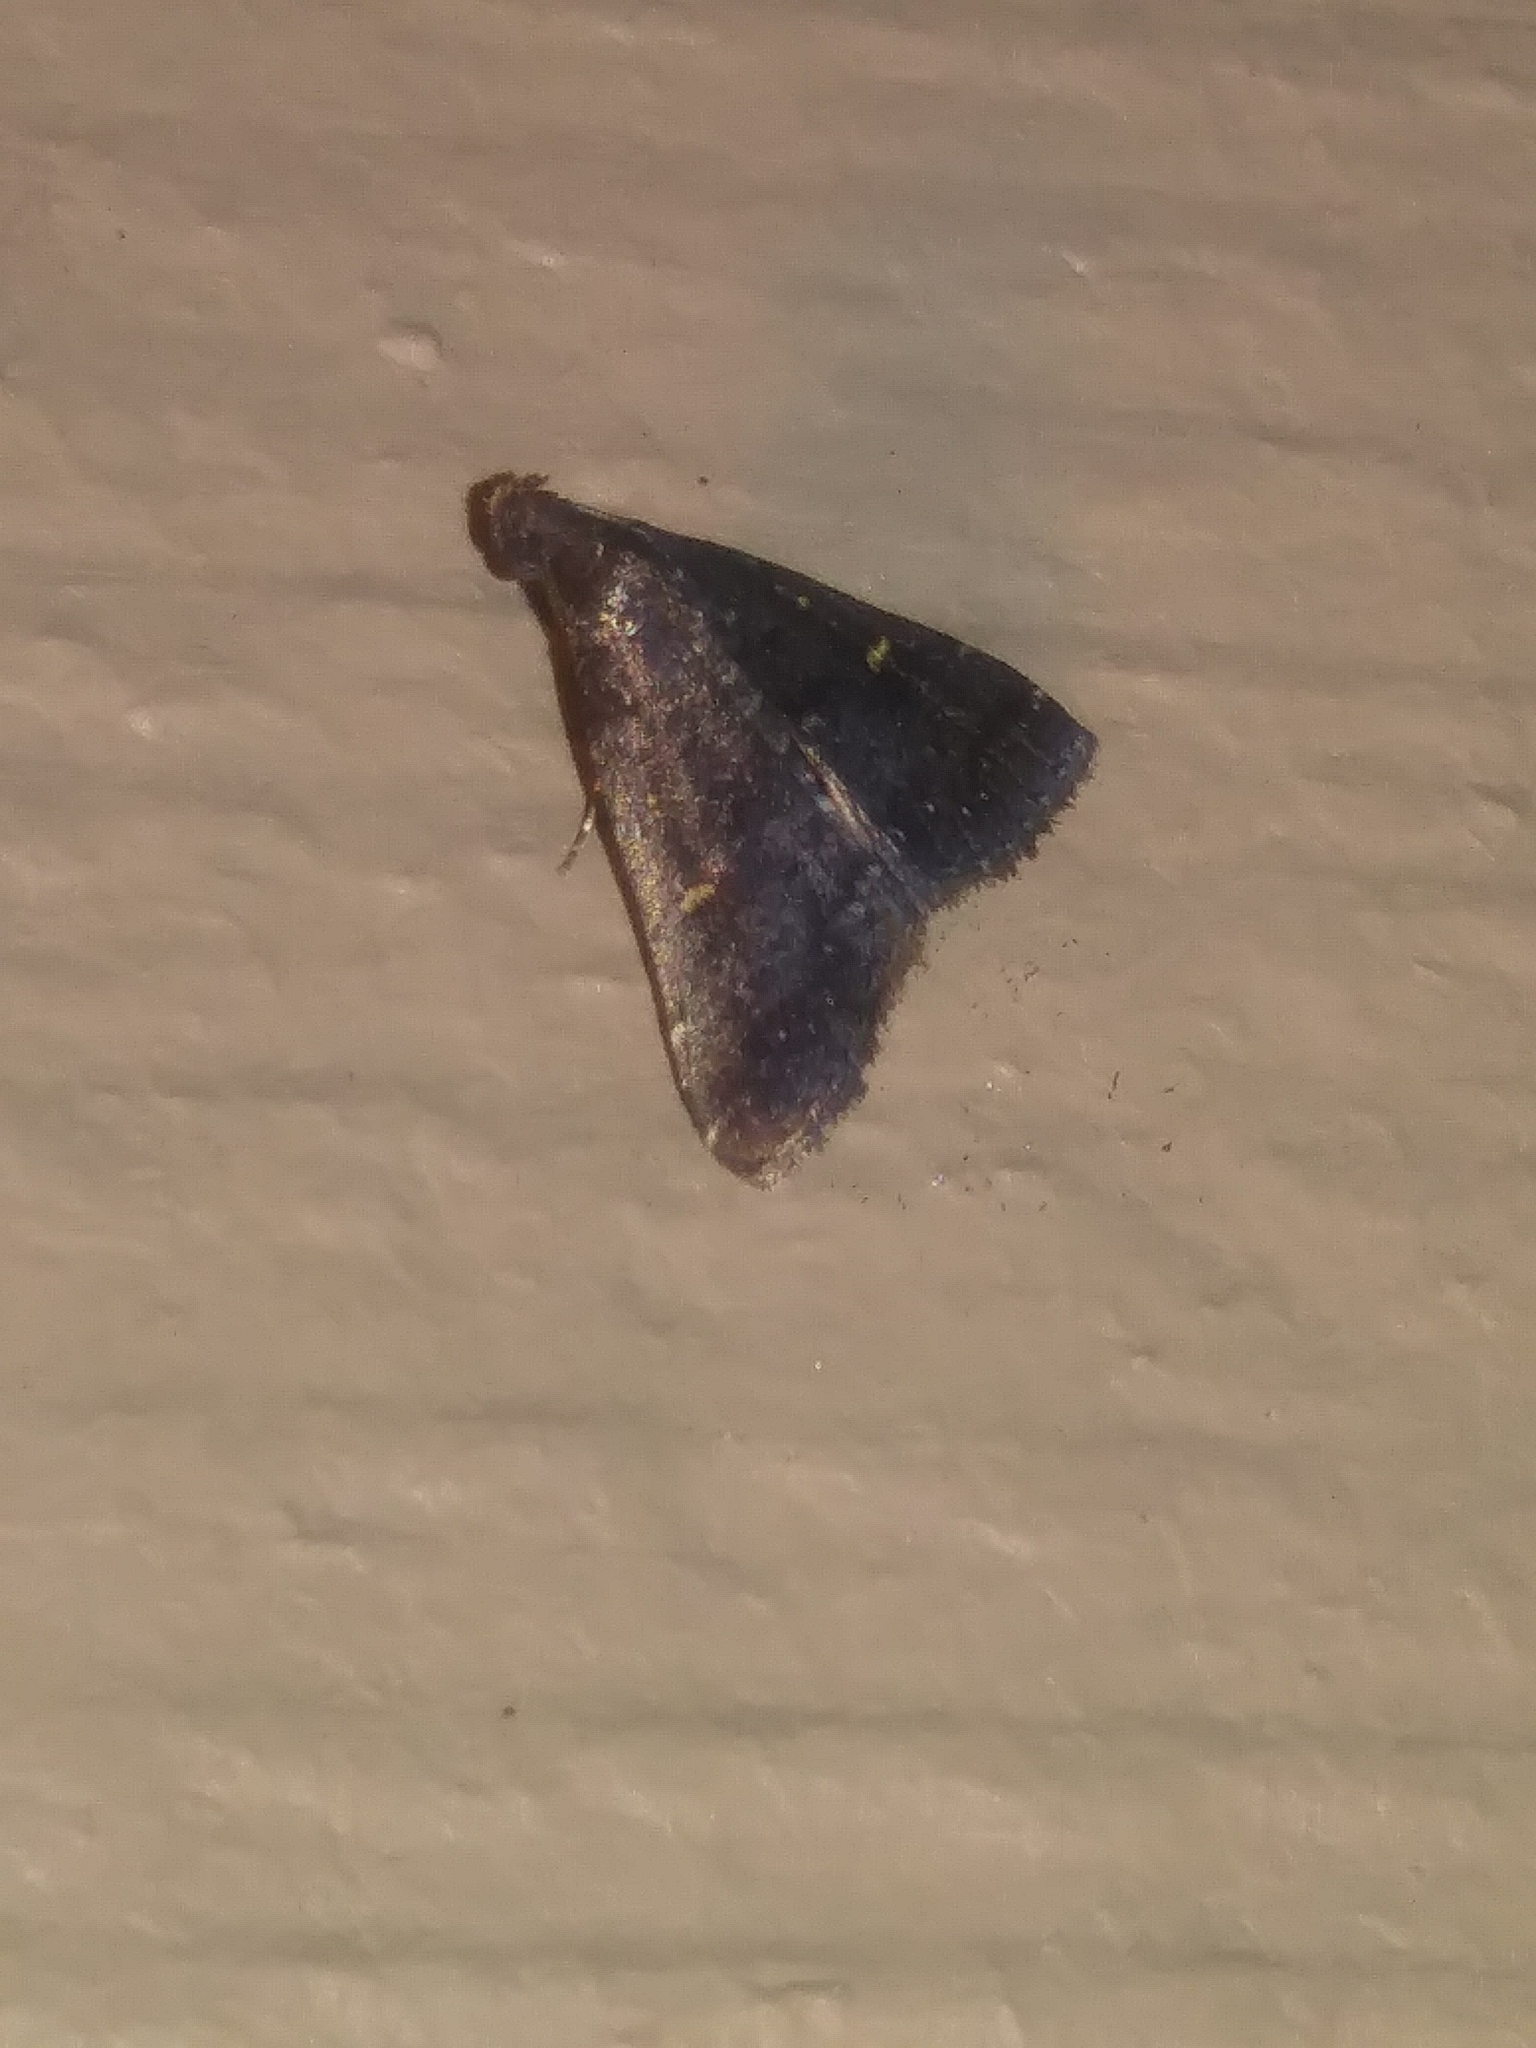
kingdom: Animalia
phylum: Arthropoda
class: Insecta
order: Lepidoptera
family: Erebidae
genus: Tetanolita
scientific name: Tetanolita mynesalis
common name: Smoky tetanolita moth
